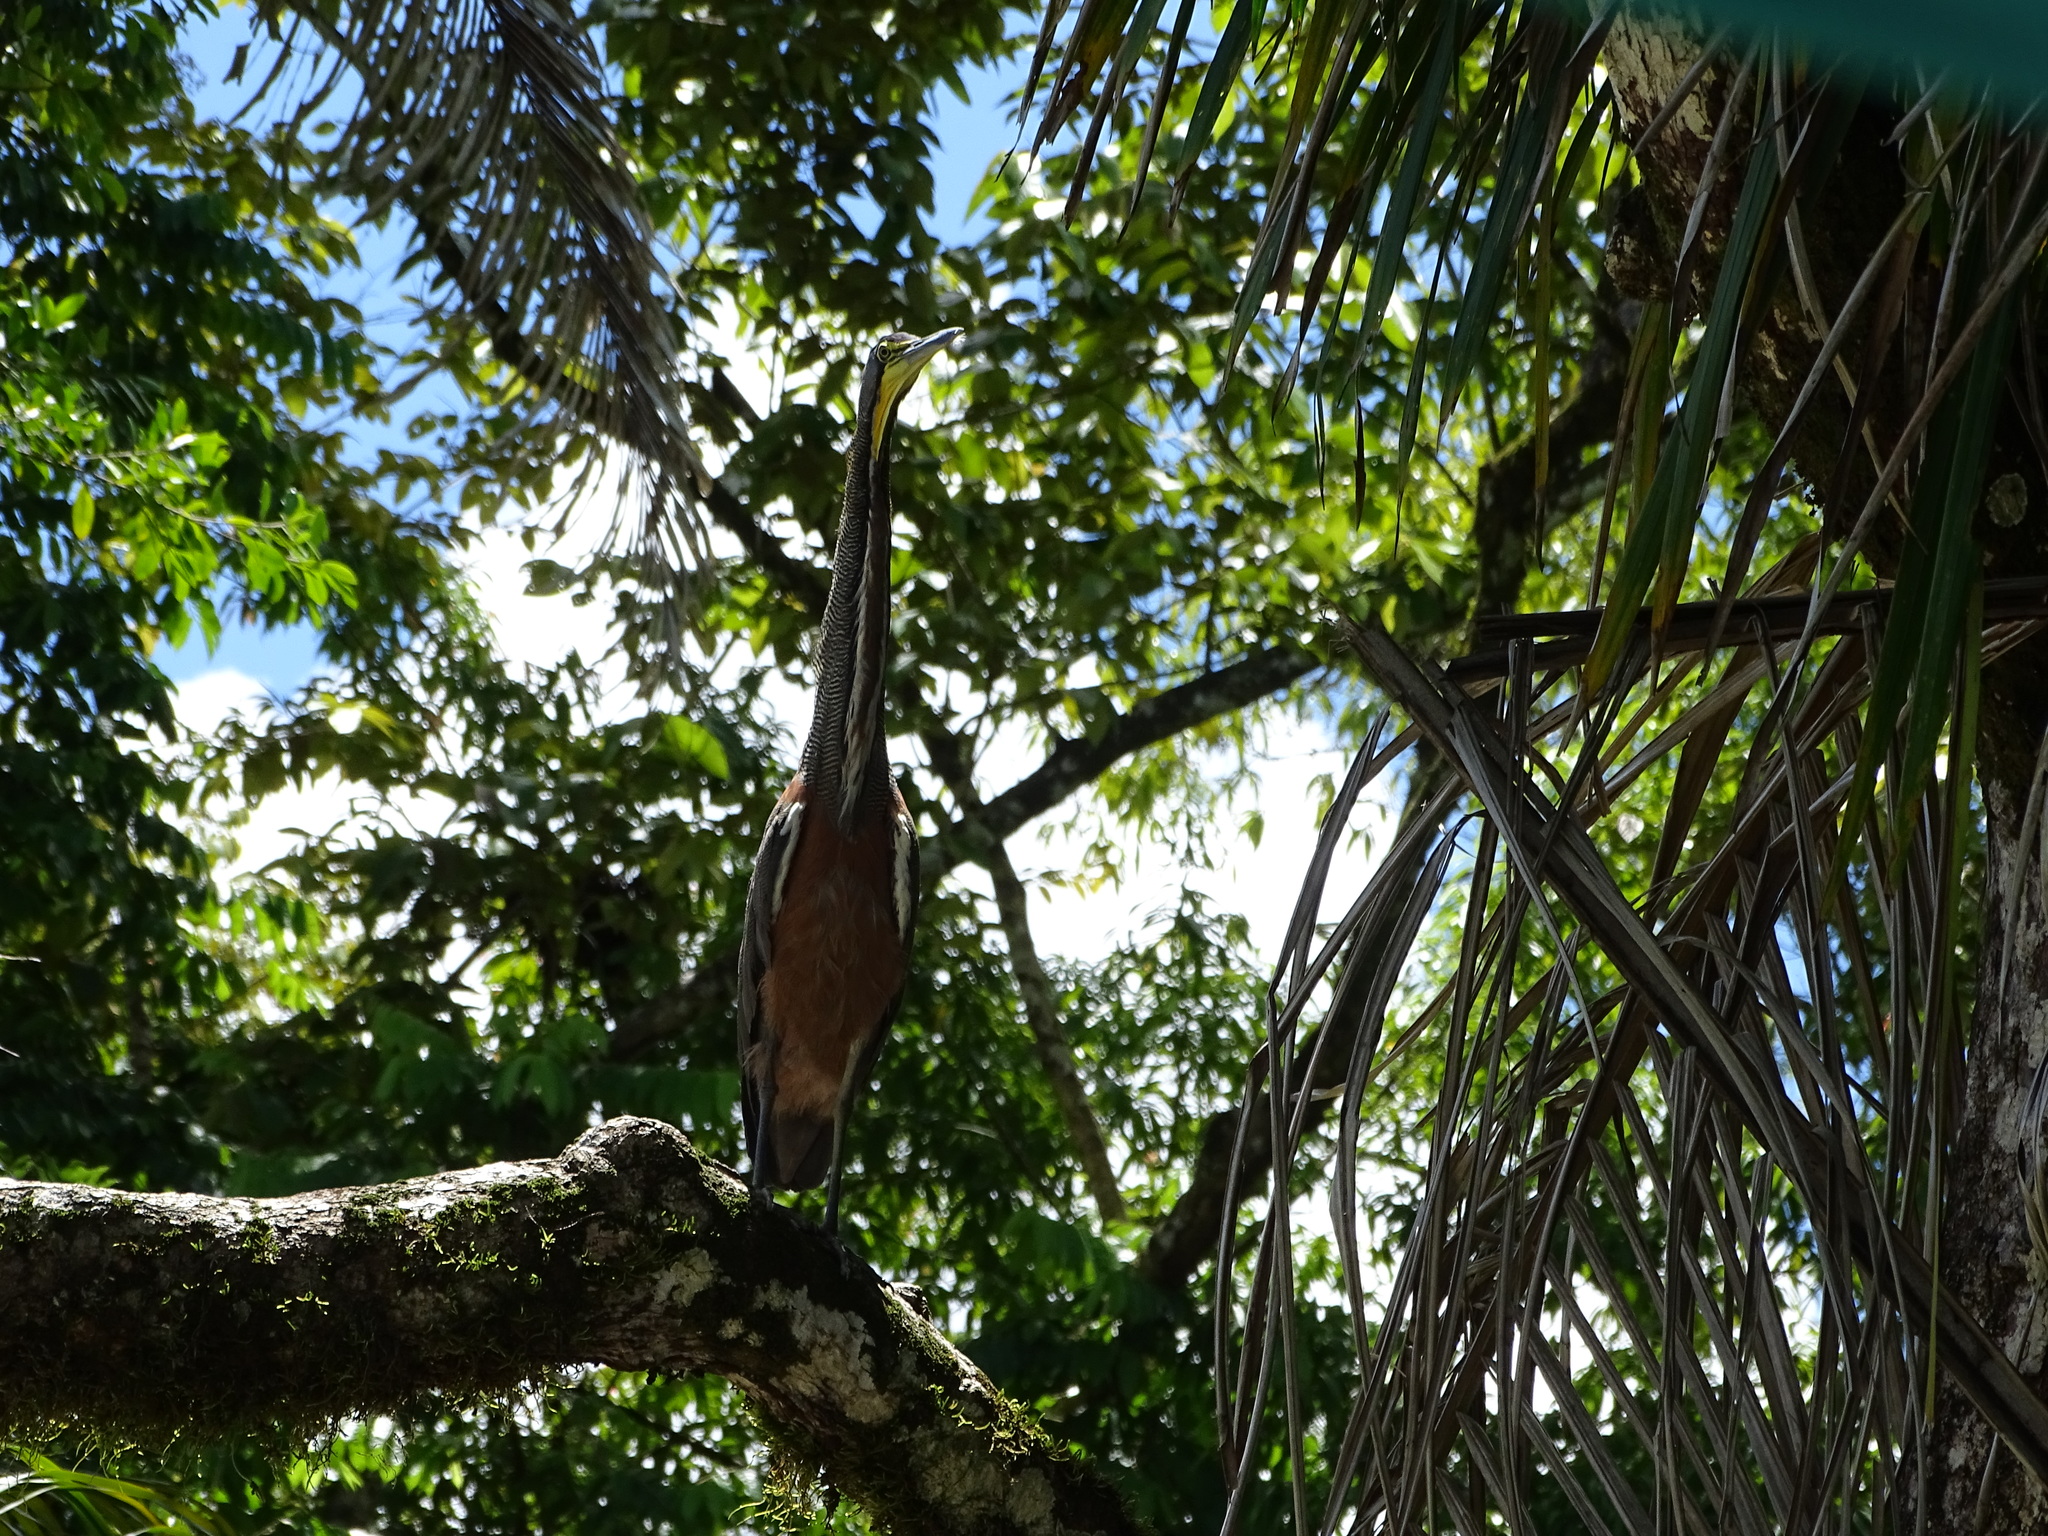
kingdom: Animalia
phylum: Chordata
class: Aves
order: Pelecaniformes
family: Ardeidae
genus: Tigrisoma
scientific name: Tigrisoma mexicanum
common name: Bare-throated tiger-heron
